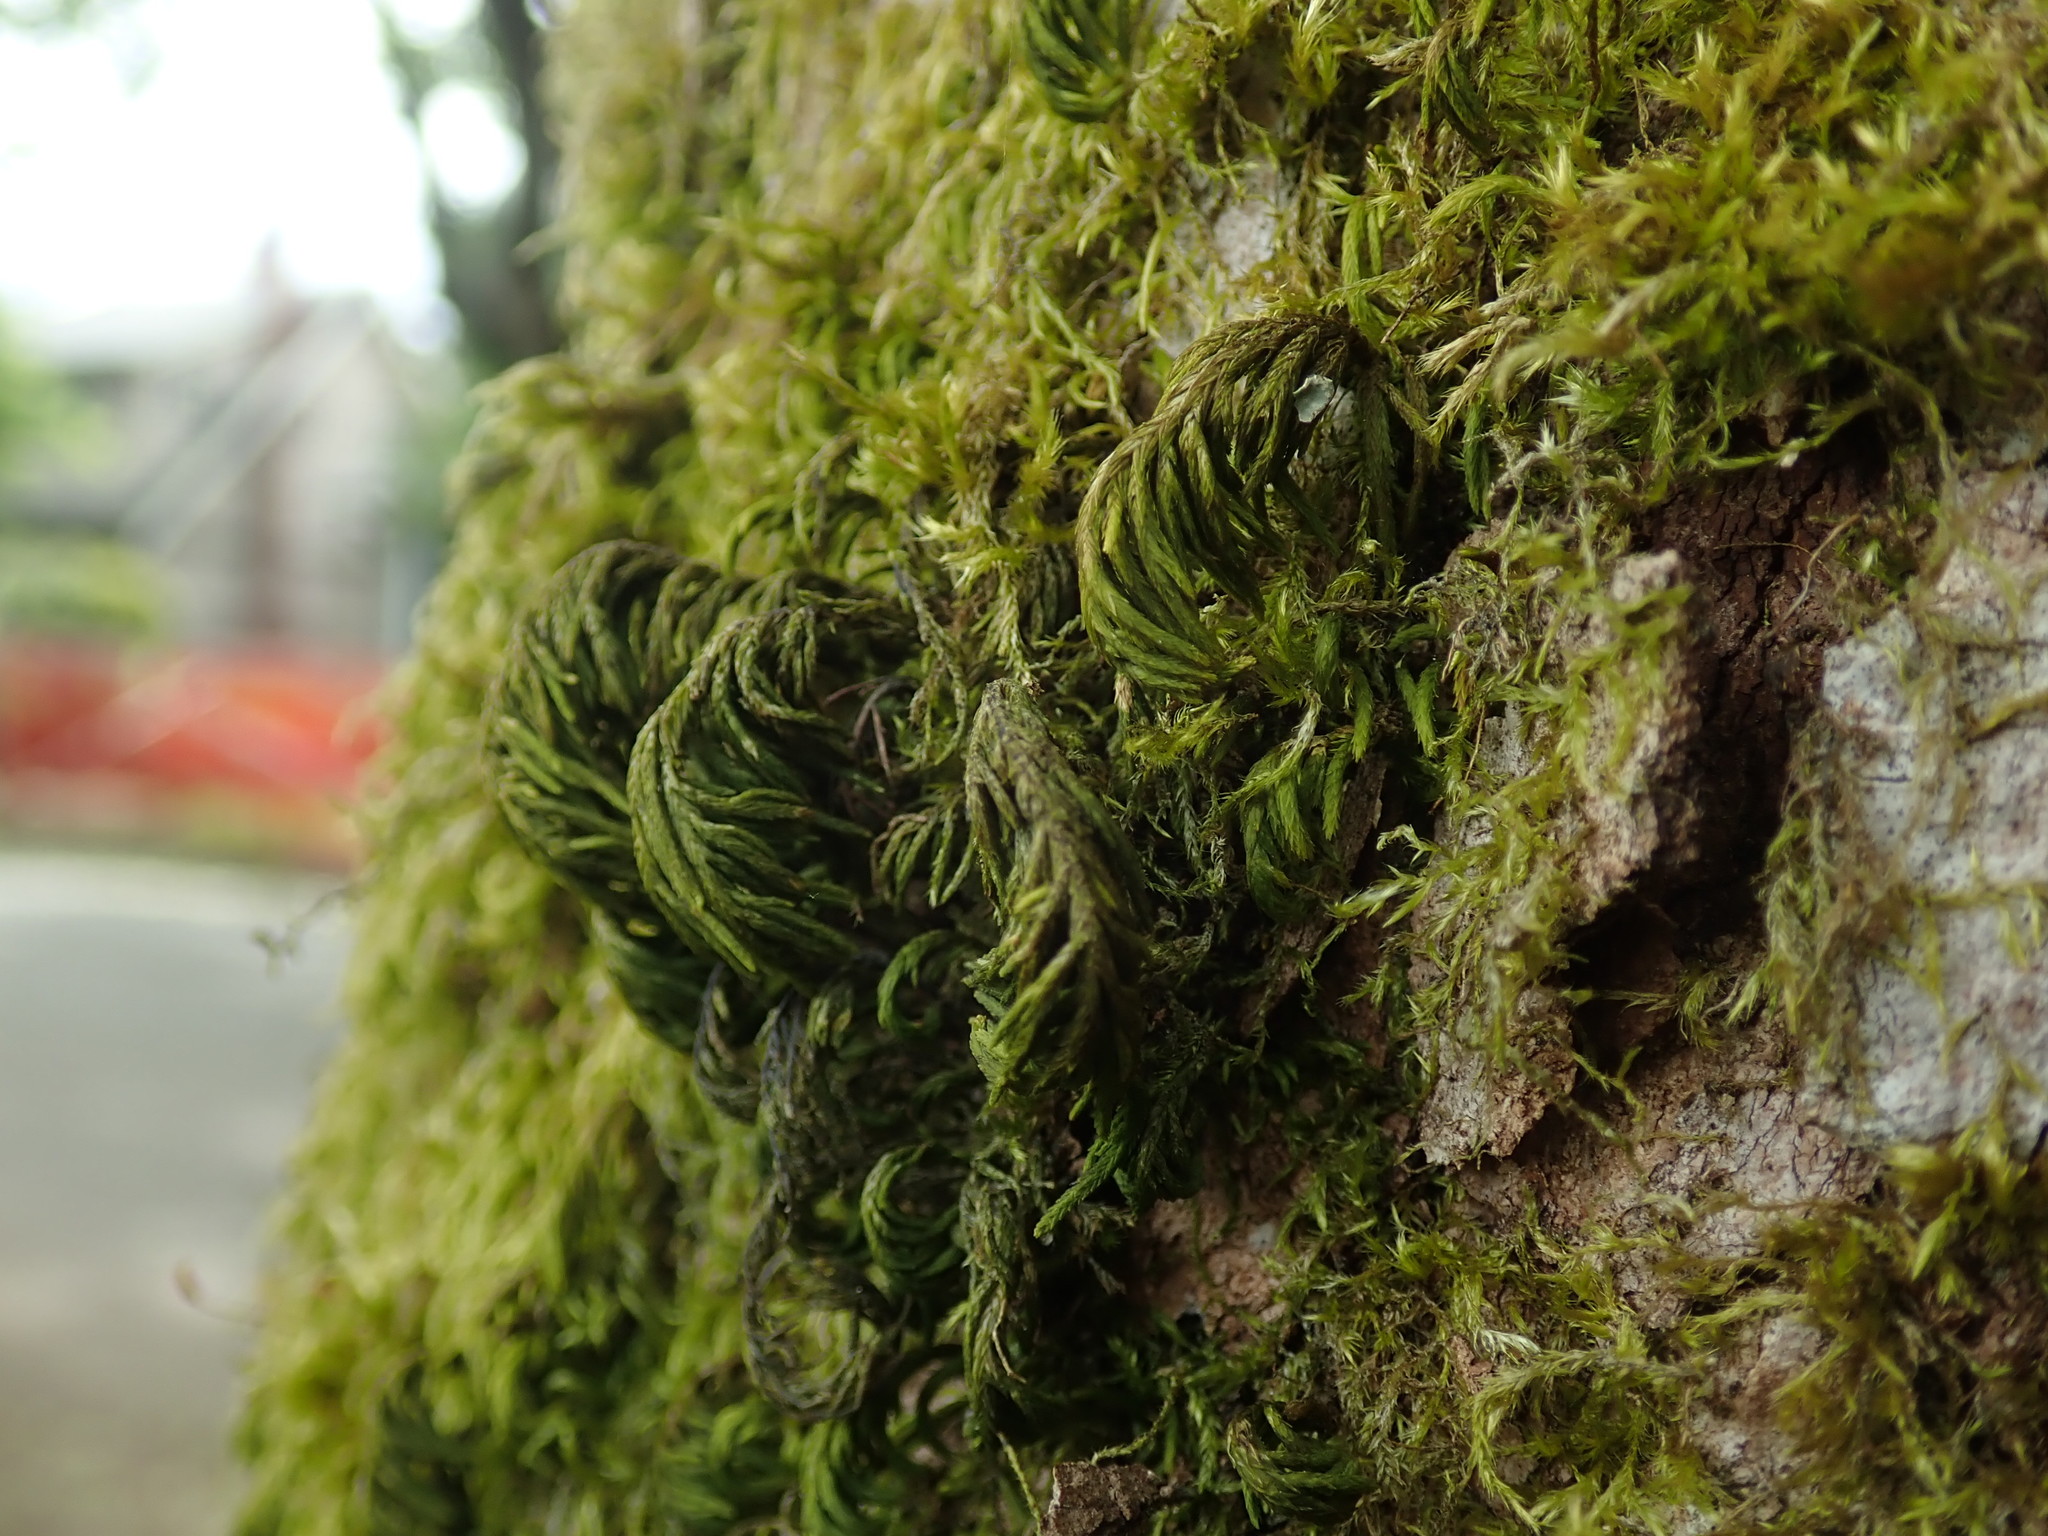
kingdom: Plantae
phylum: Bryophyta
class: Bryopsida
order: Hypnales
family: Cryphaeaceae
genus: Dendroalsia
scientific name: Dendroalsia abietina
